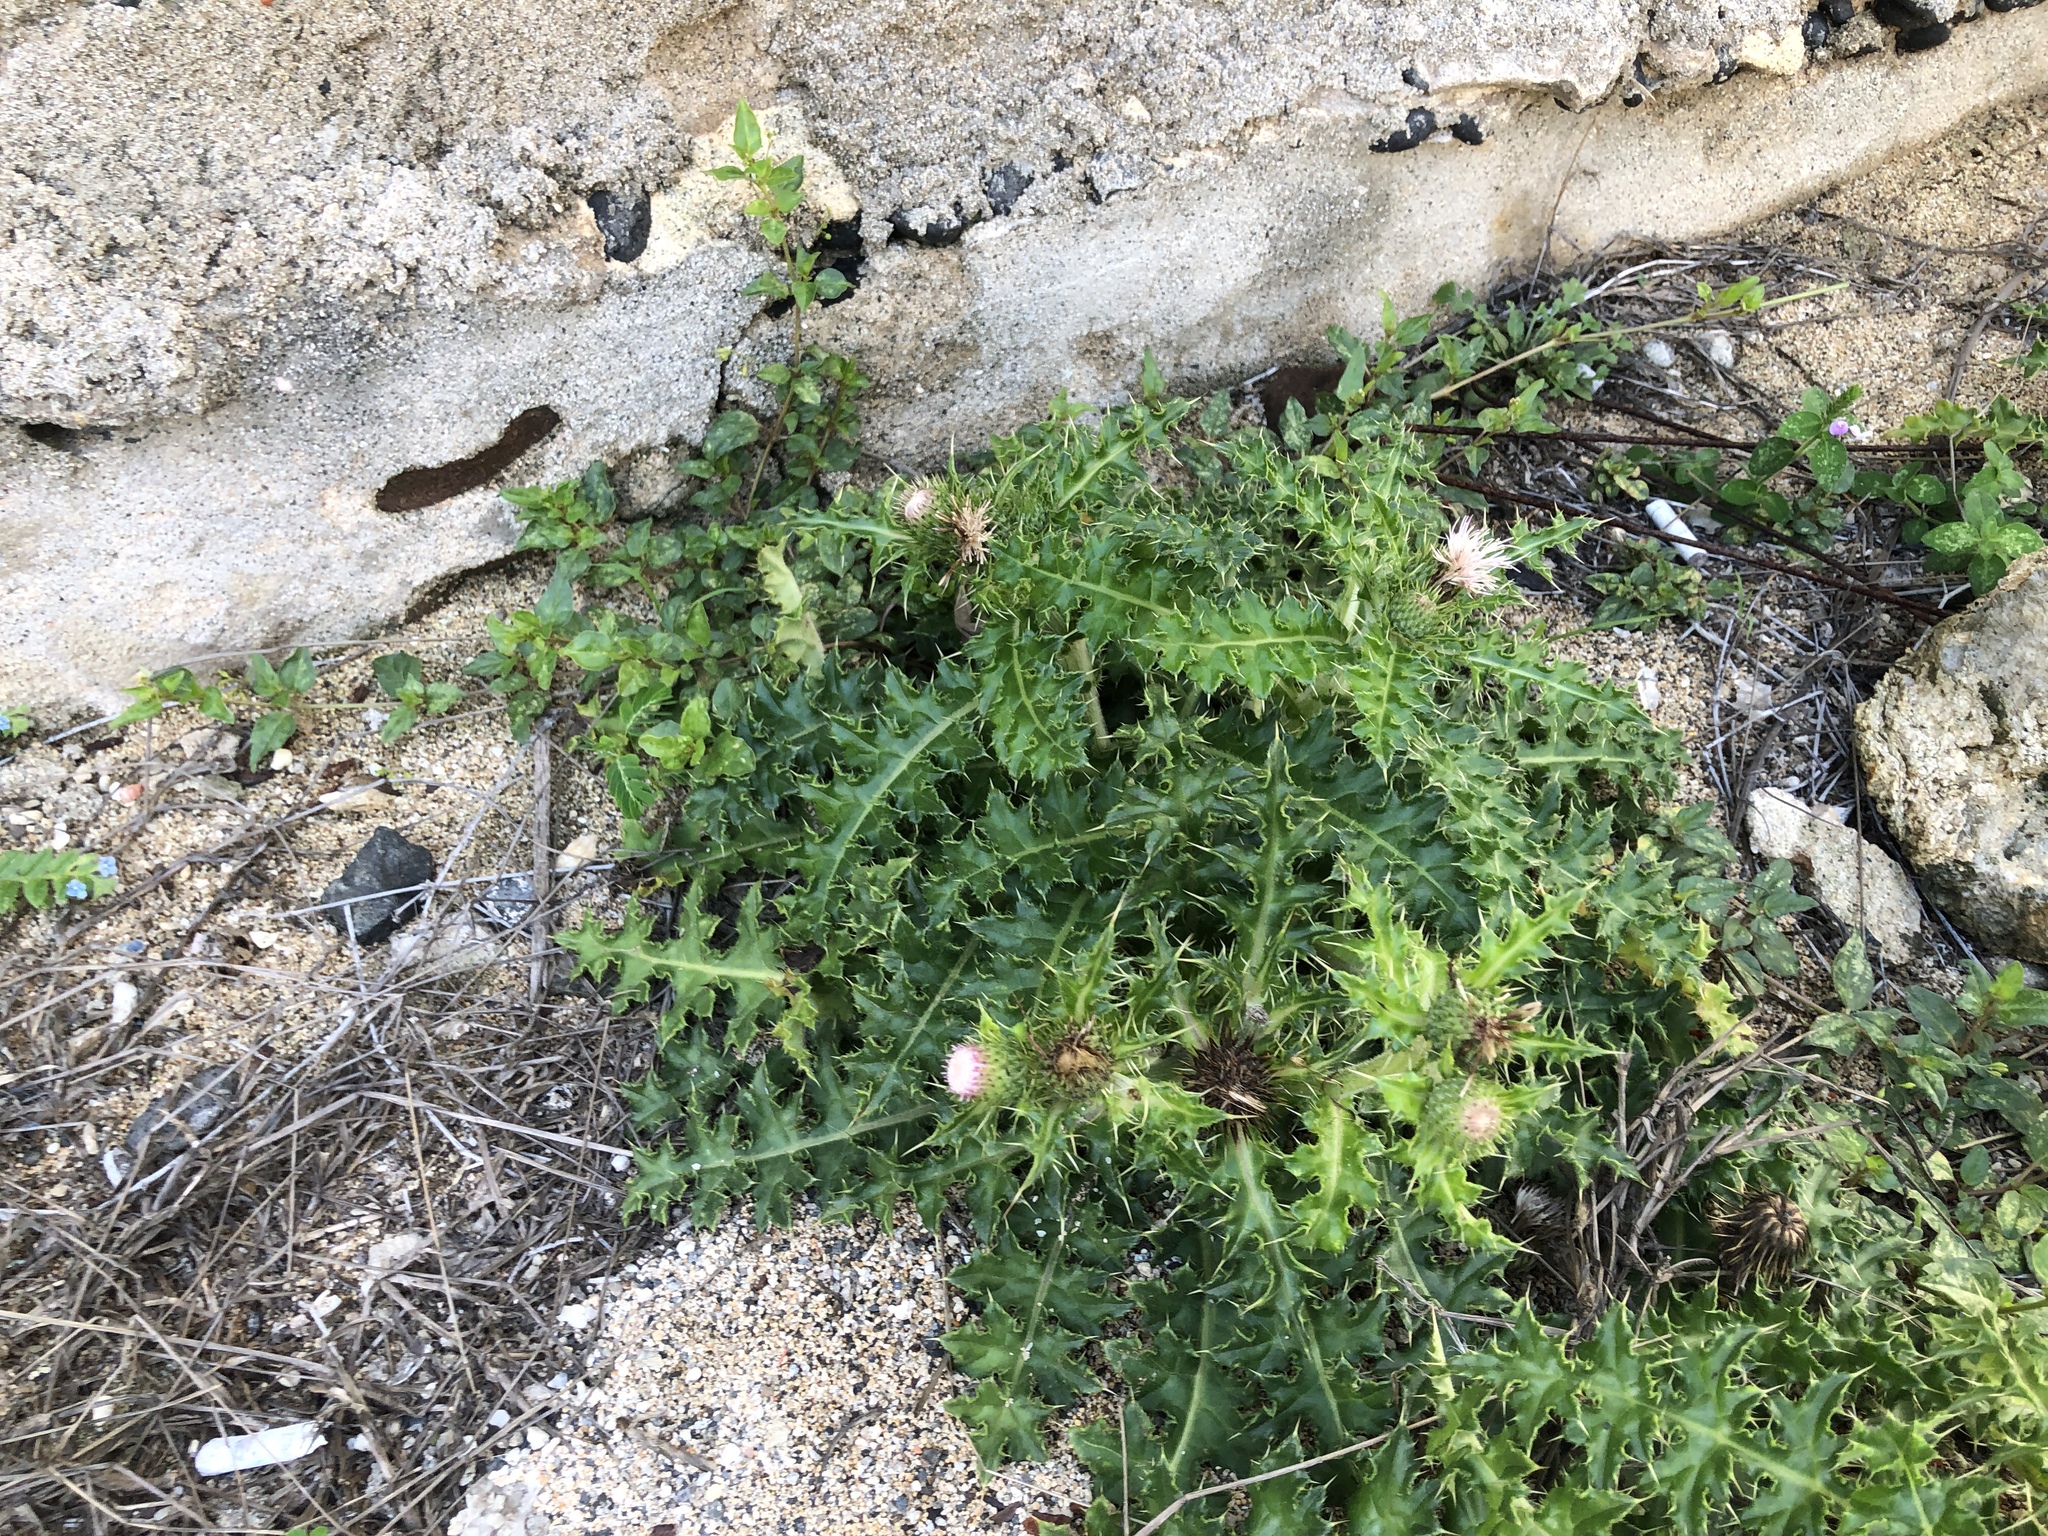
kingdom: Plantae
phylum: Tracheophyta
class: Magnoliopsida
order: Asterales
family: Asteraceae
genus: Cirsium
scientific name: Cirsium brevicaule
